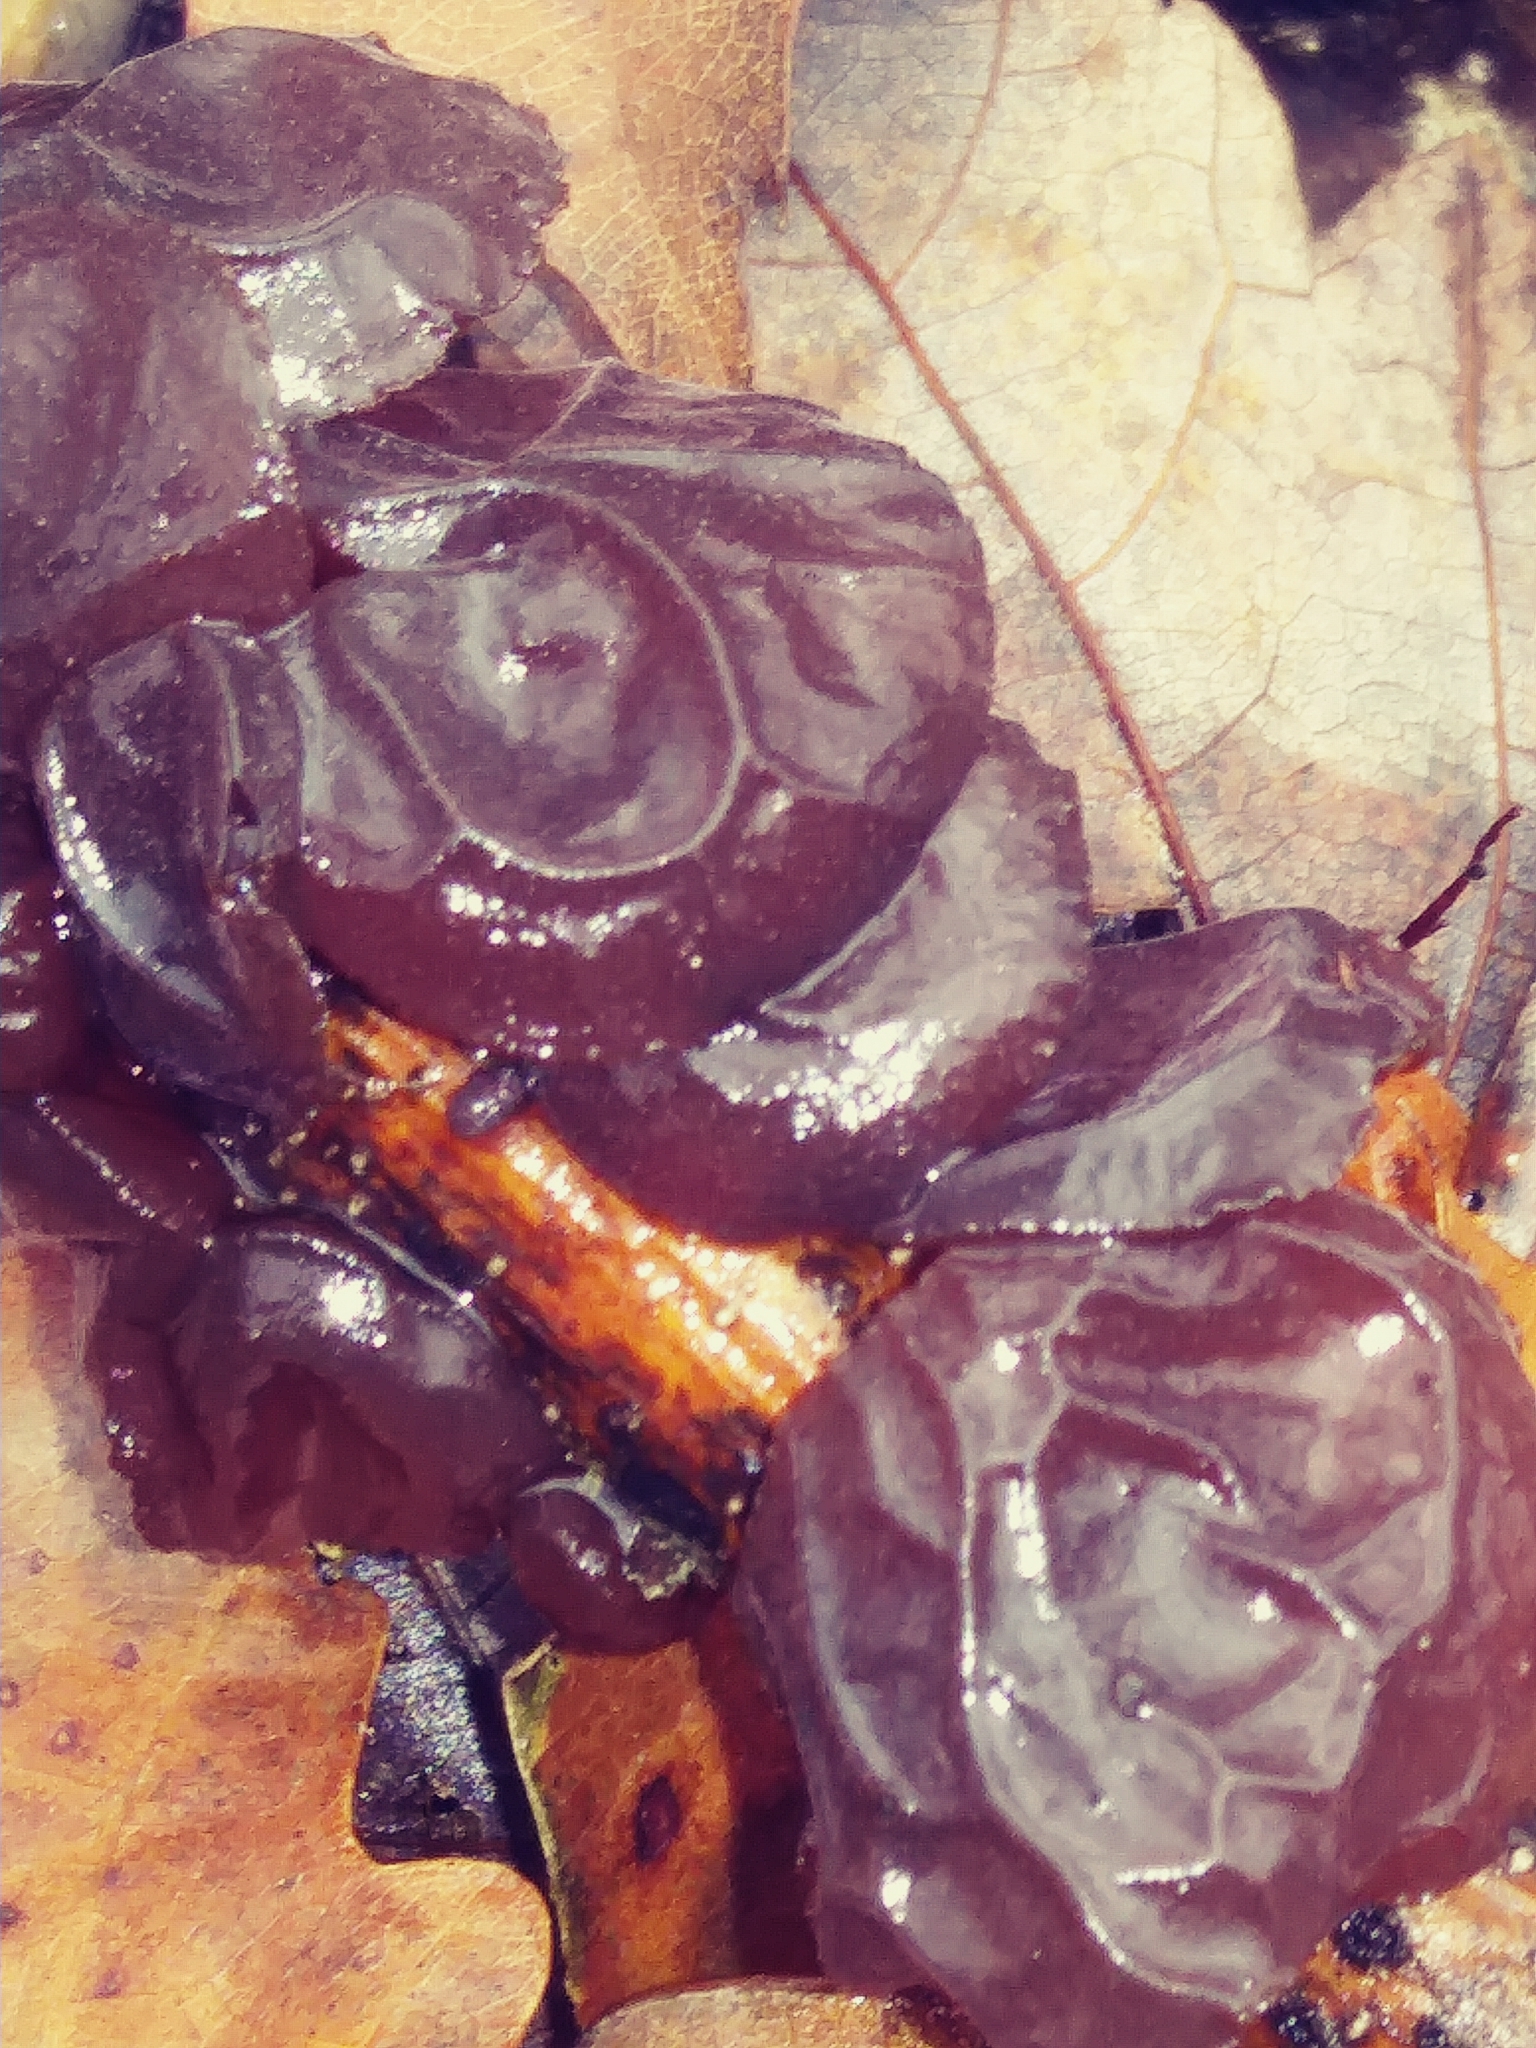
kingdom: Fungi
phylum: Basidiomycota
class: Agaricomycetes
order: Auriculariales
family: Auriculariaceae
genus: Exidia
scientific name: Exidia
